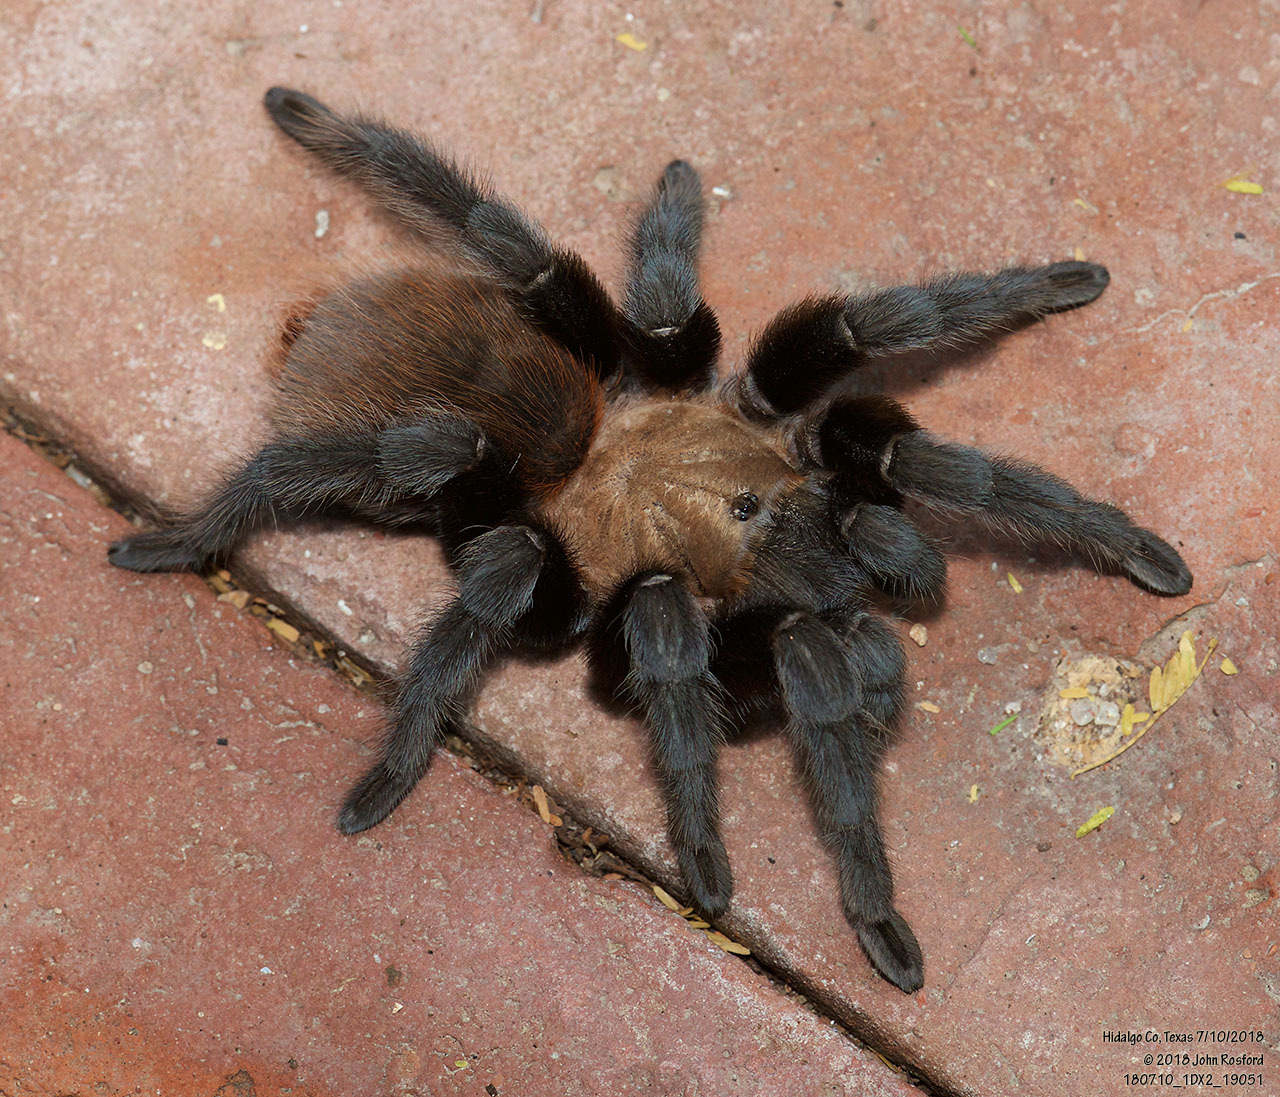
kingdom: Animalia
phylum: Arthropoda
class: Arachnida
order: Araneae
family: Theraphosidae
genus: Aphonopelma
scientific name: Aphonopelma anax
